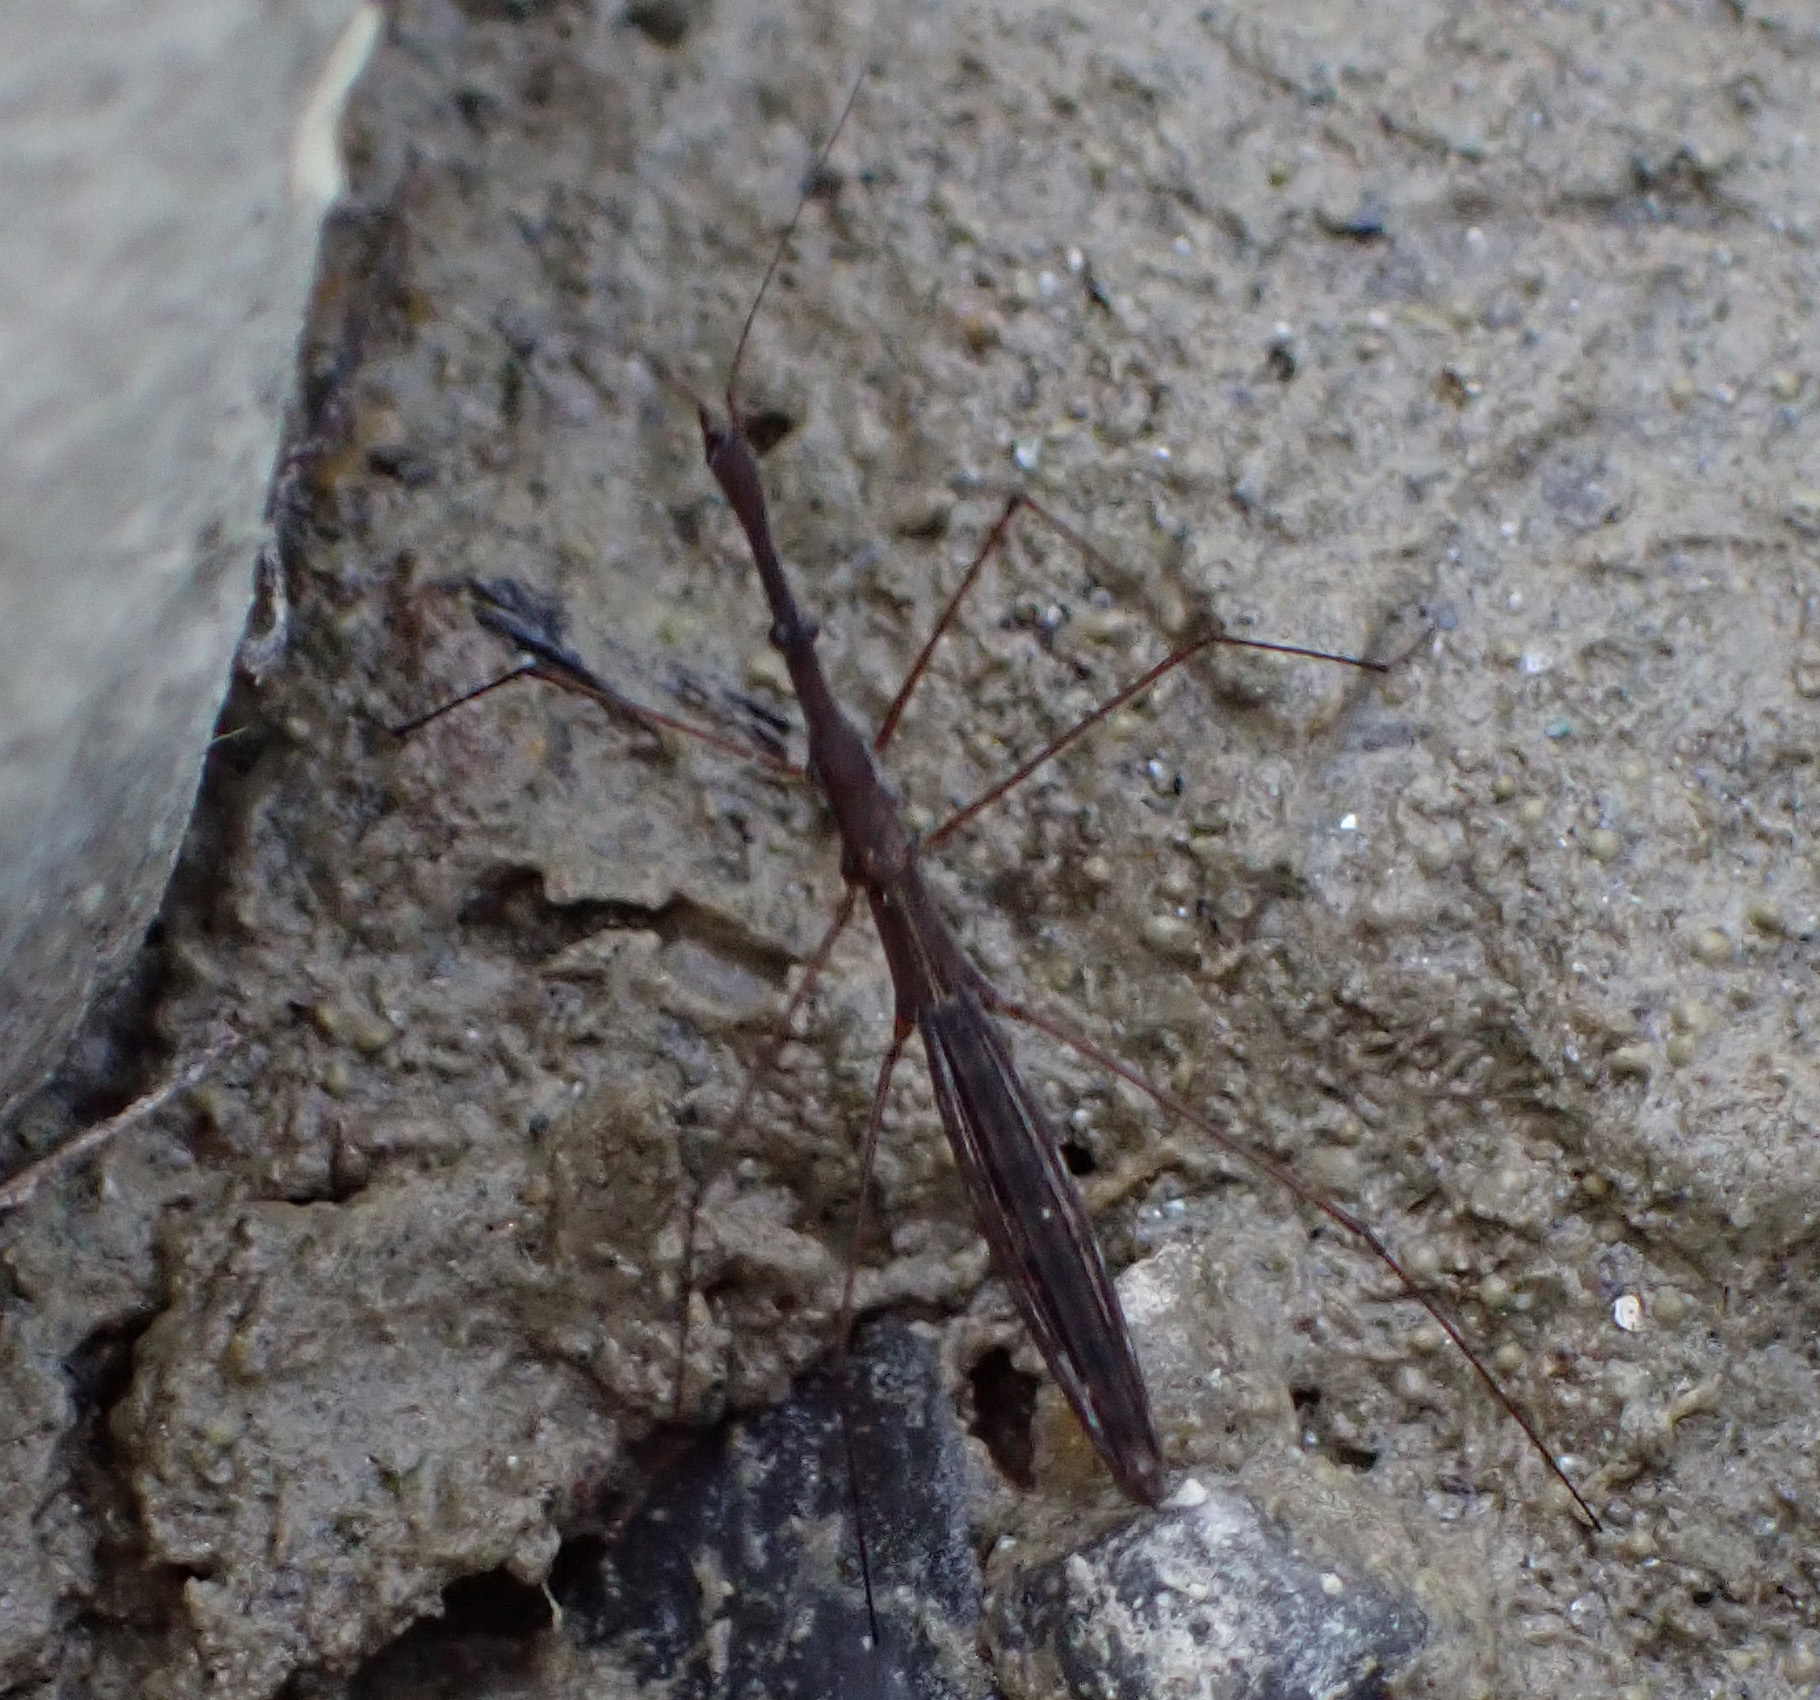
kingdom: Animalia
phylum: Arthropoda
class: Insecta
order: Hemiptera
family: Hydrometridae
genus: Hydrometra
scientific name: Hydrometra stagnorum
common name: Water measurer
